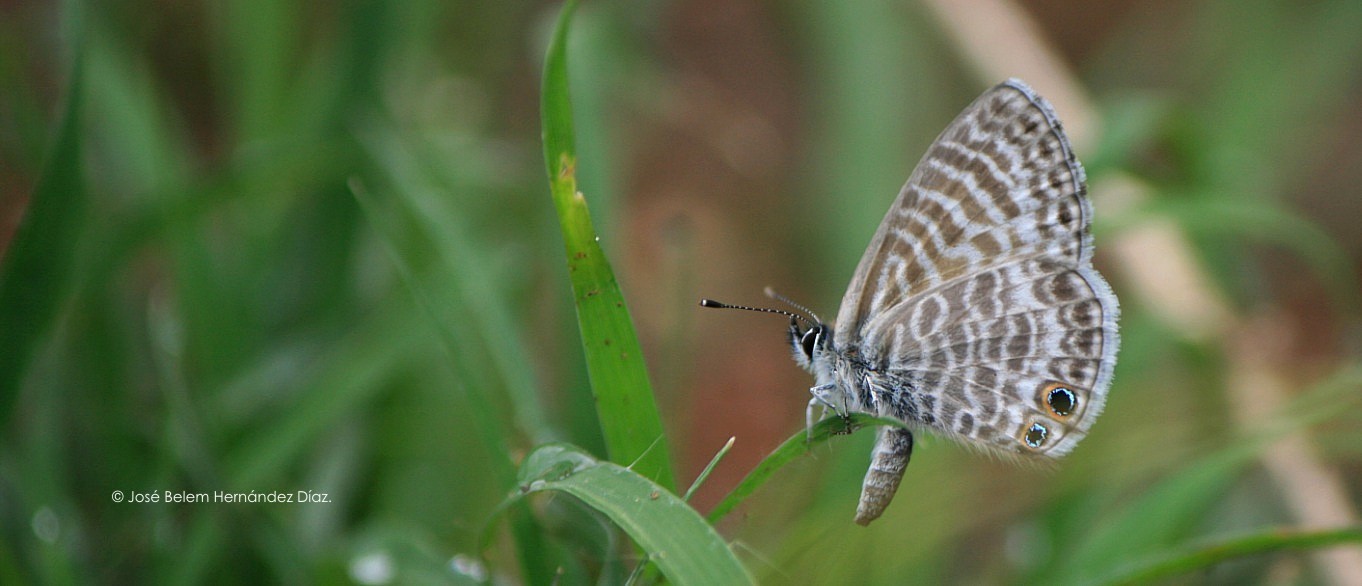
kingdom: Animalia
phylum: Arthropoda
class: Insecta
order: Lepidoptera
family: Lycaenidae
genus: Leptotes
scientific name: Leptotes marina
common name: Marine blue
